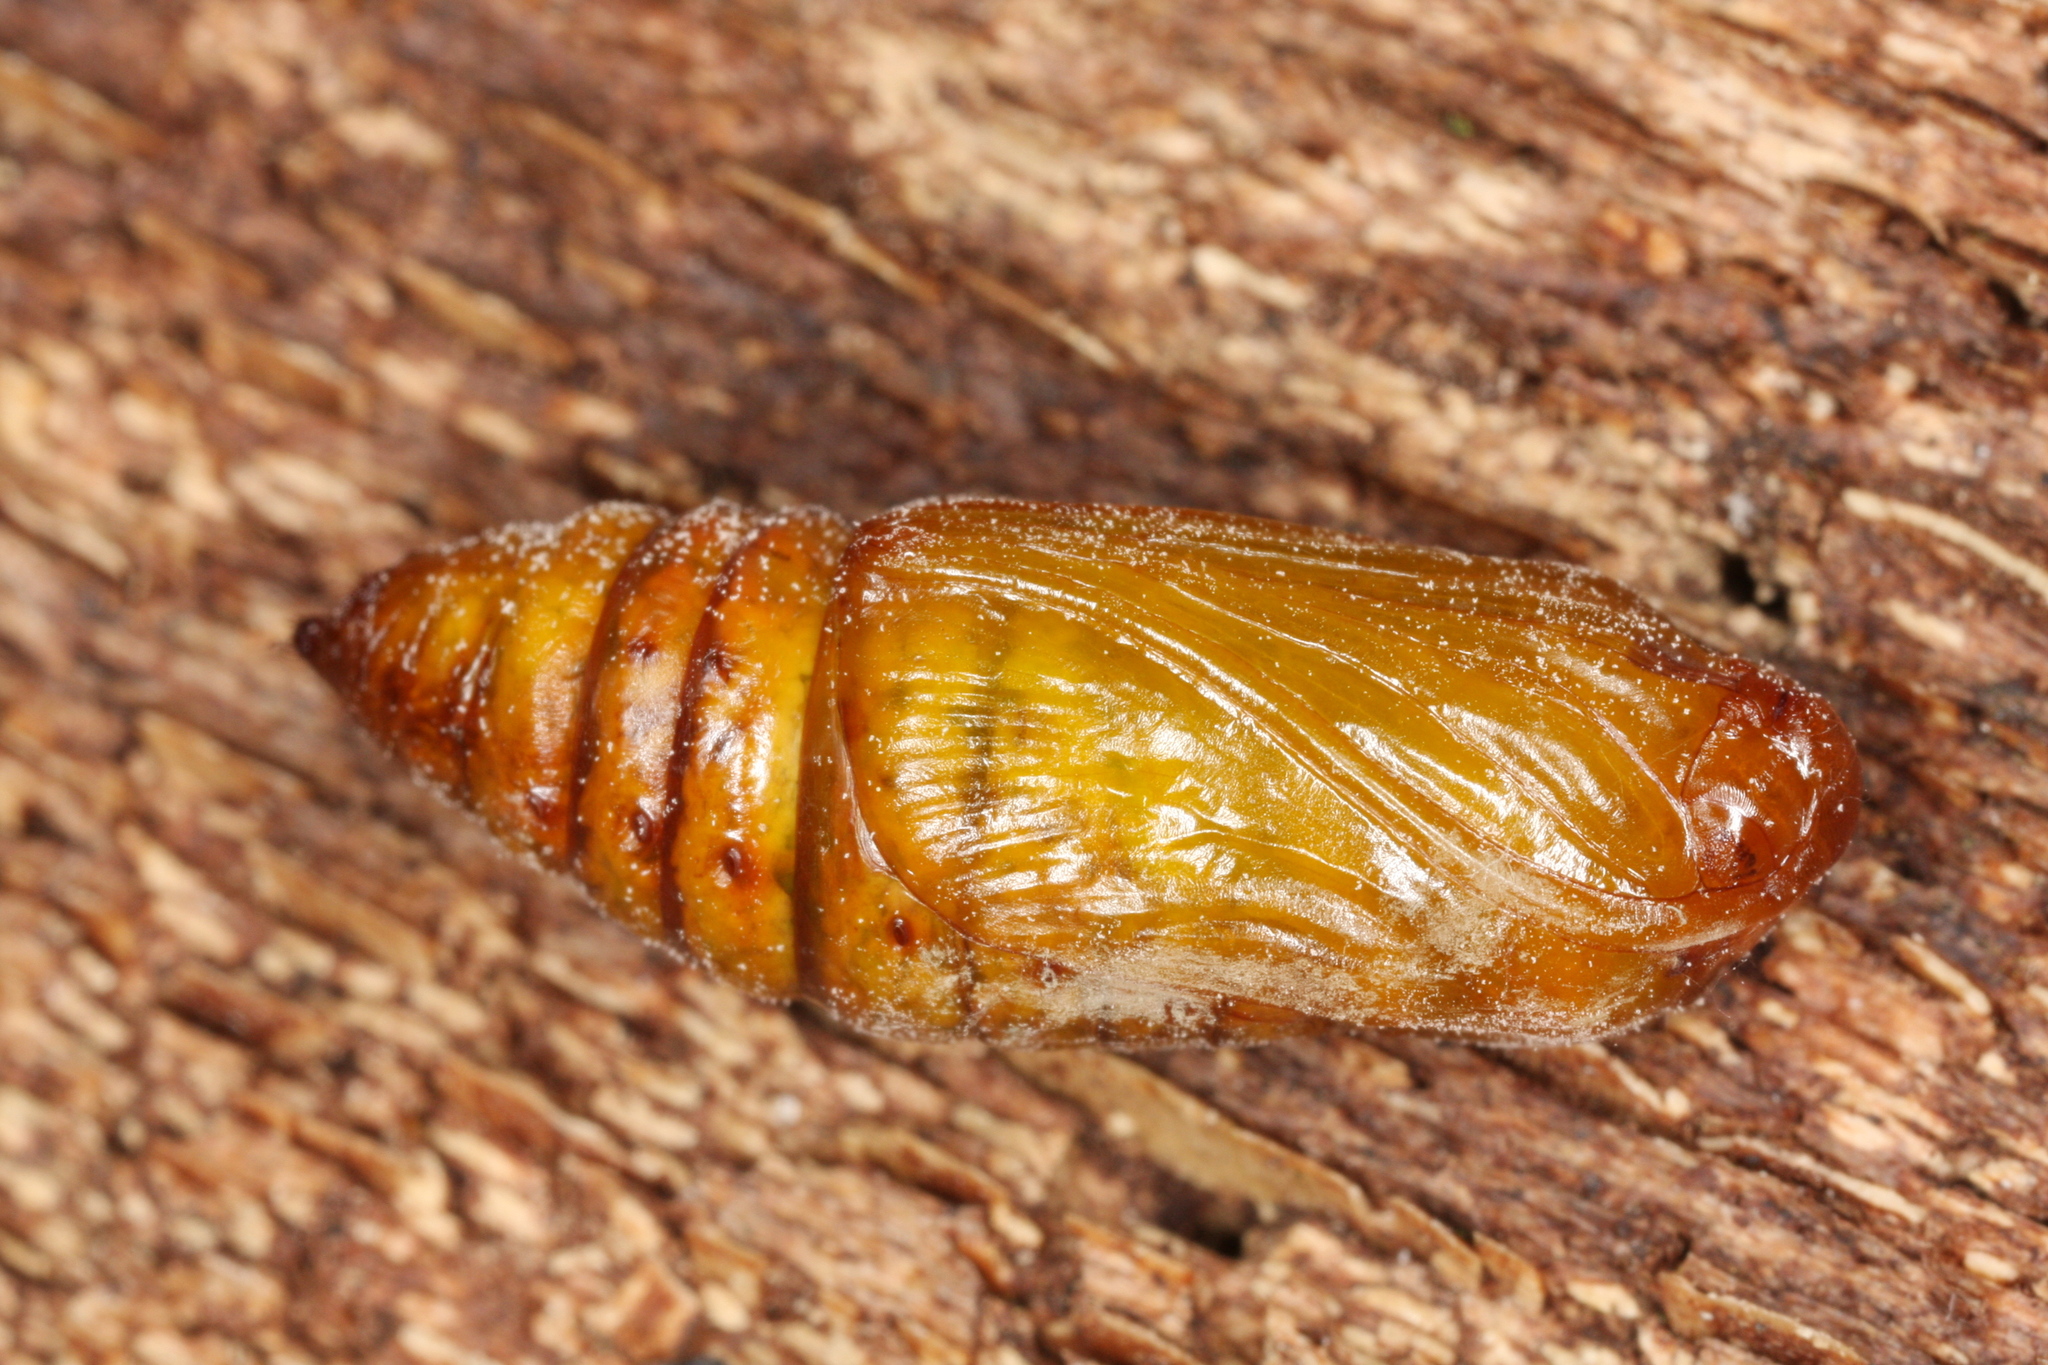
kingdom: Animalia
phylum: Arthropoda
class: Insecta
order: Lepidoptera
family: Noctuidae
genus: Allophyes
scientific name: Allophyes oxyacanthae
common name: Green-brindled crescent
